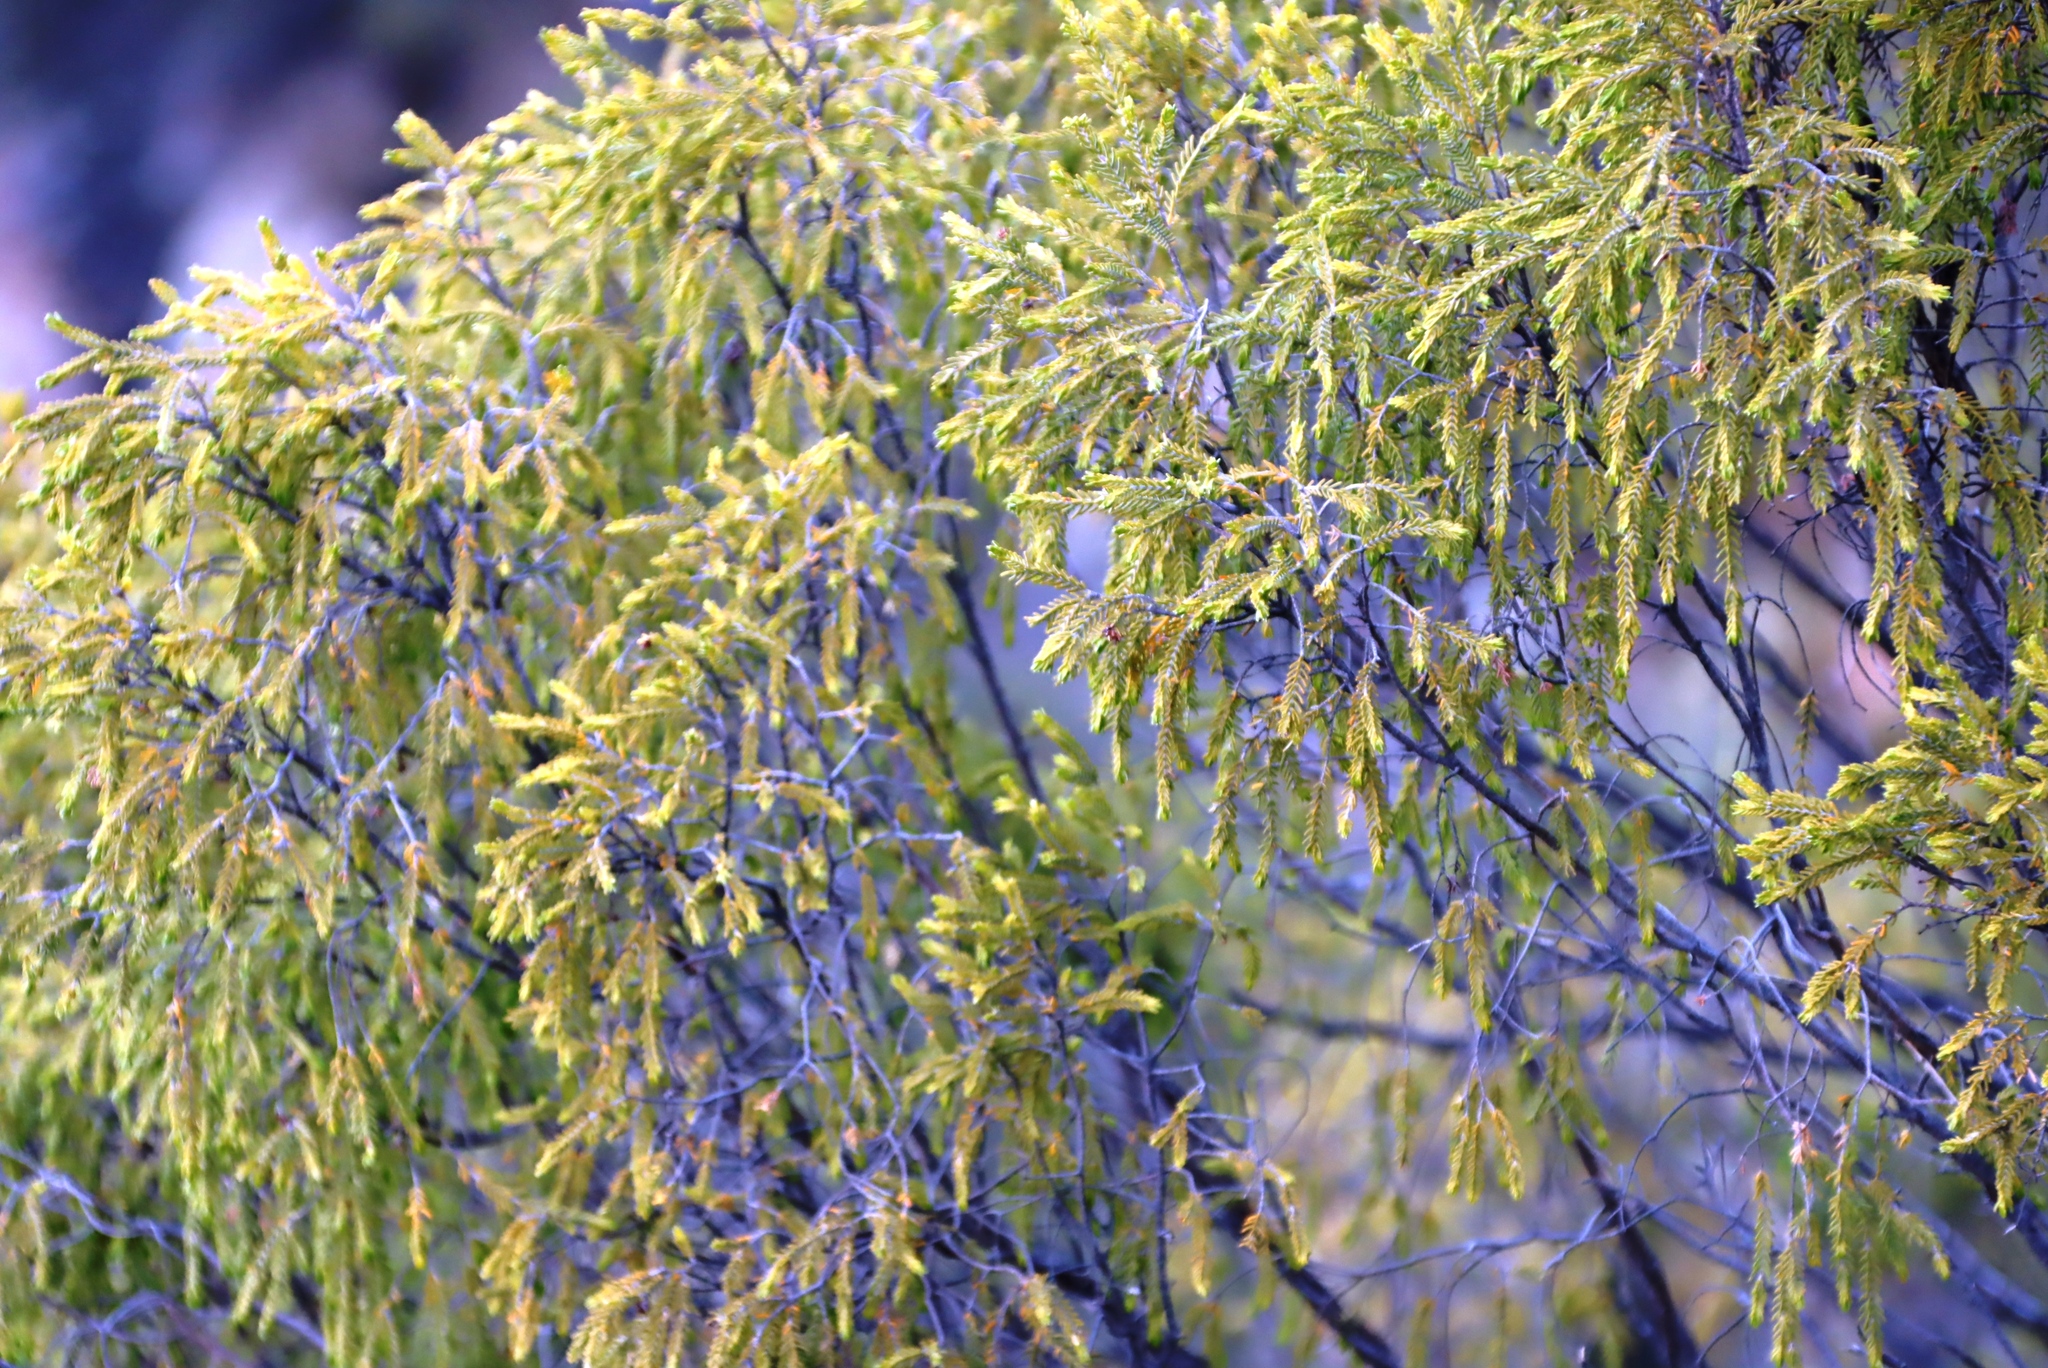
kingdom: Plantae
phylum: Tracheophyta
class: Magnoliopsida
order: Malvales
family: Thymelaeaceae
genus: Passerina
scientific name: Passerina obtusifolia
